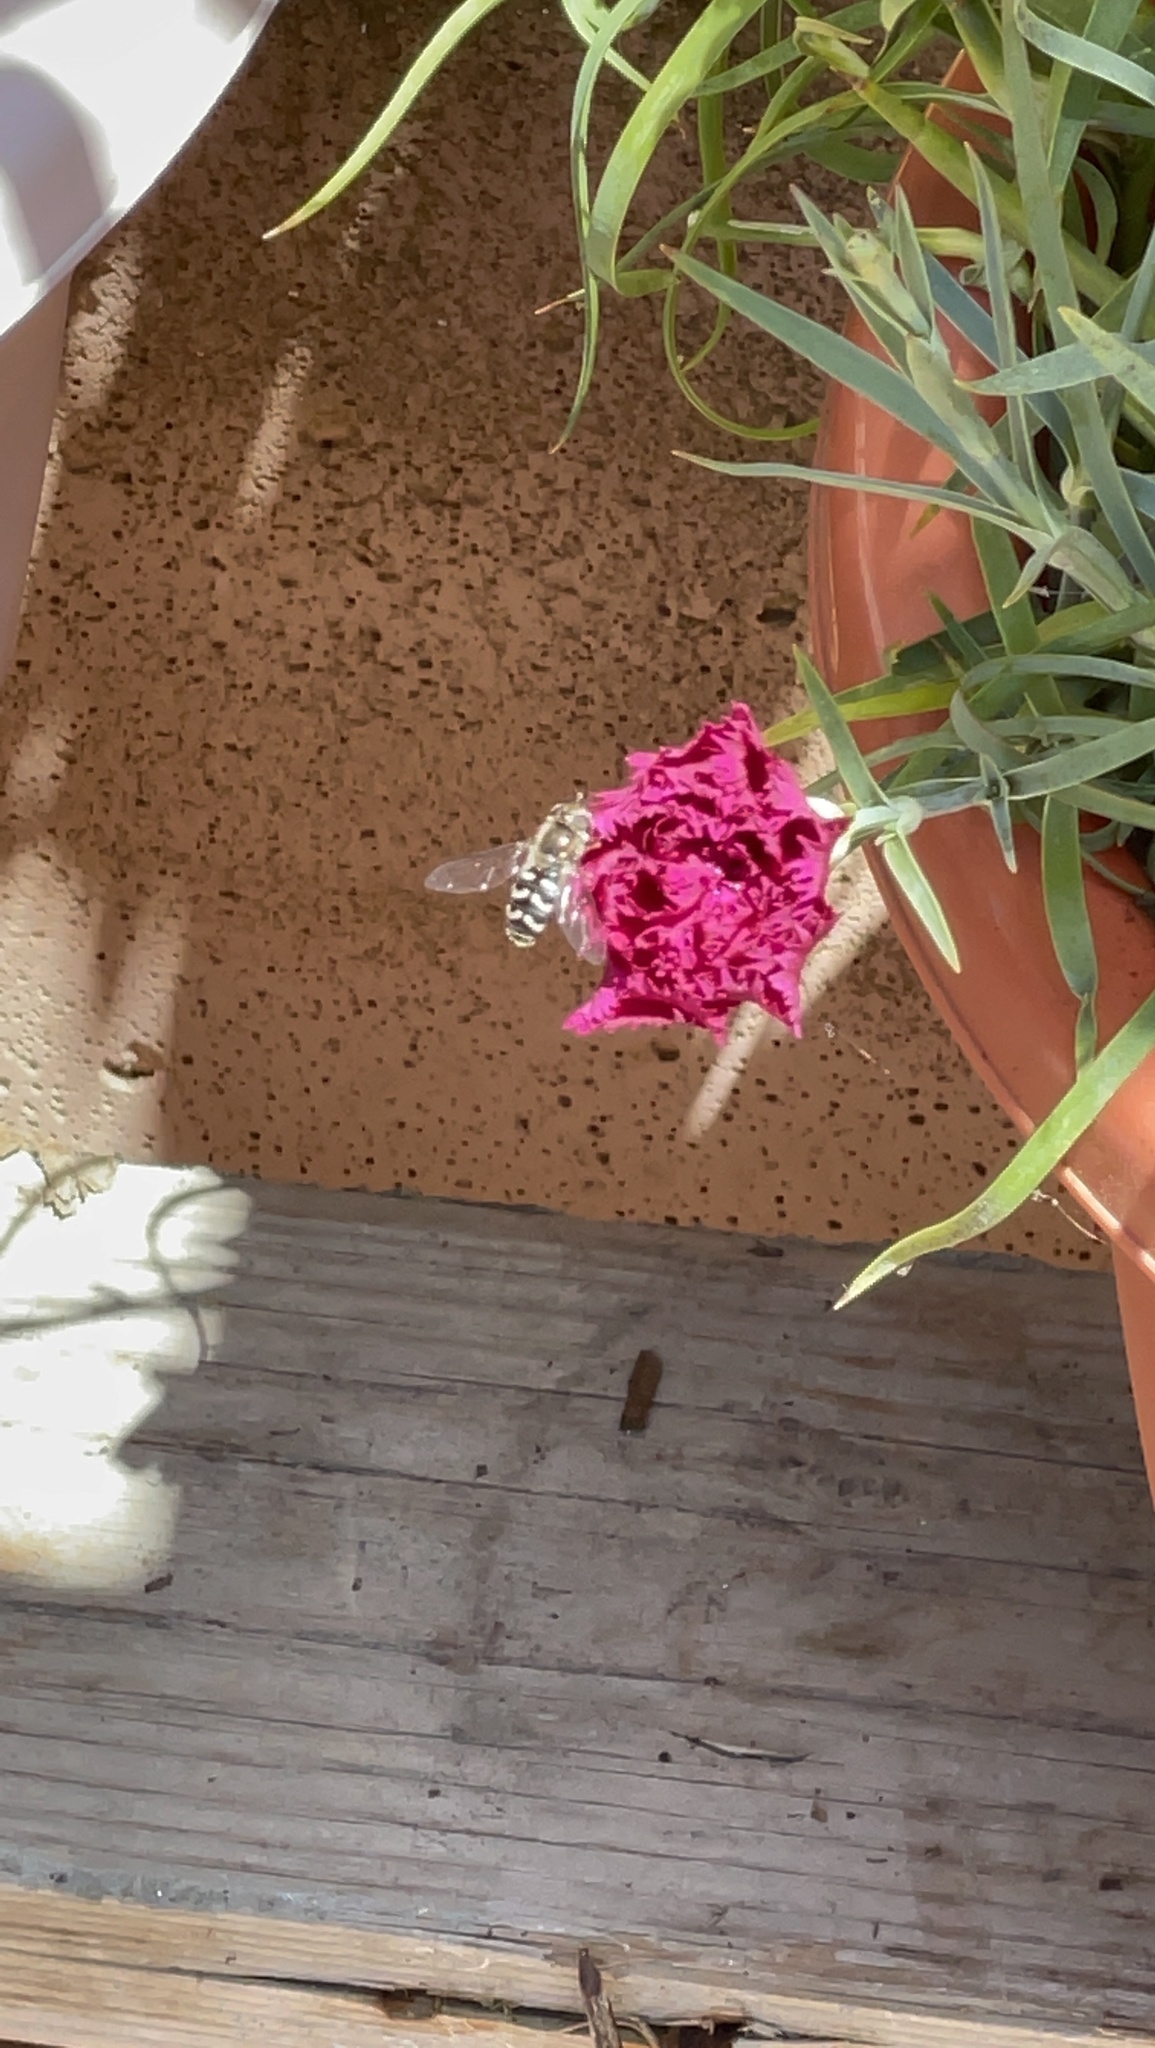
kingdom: Animalia
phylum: Arthropoda
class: Insecta
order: Diptera
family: Syrphidae
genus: Scaeva
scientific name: Scaeva affinis
